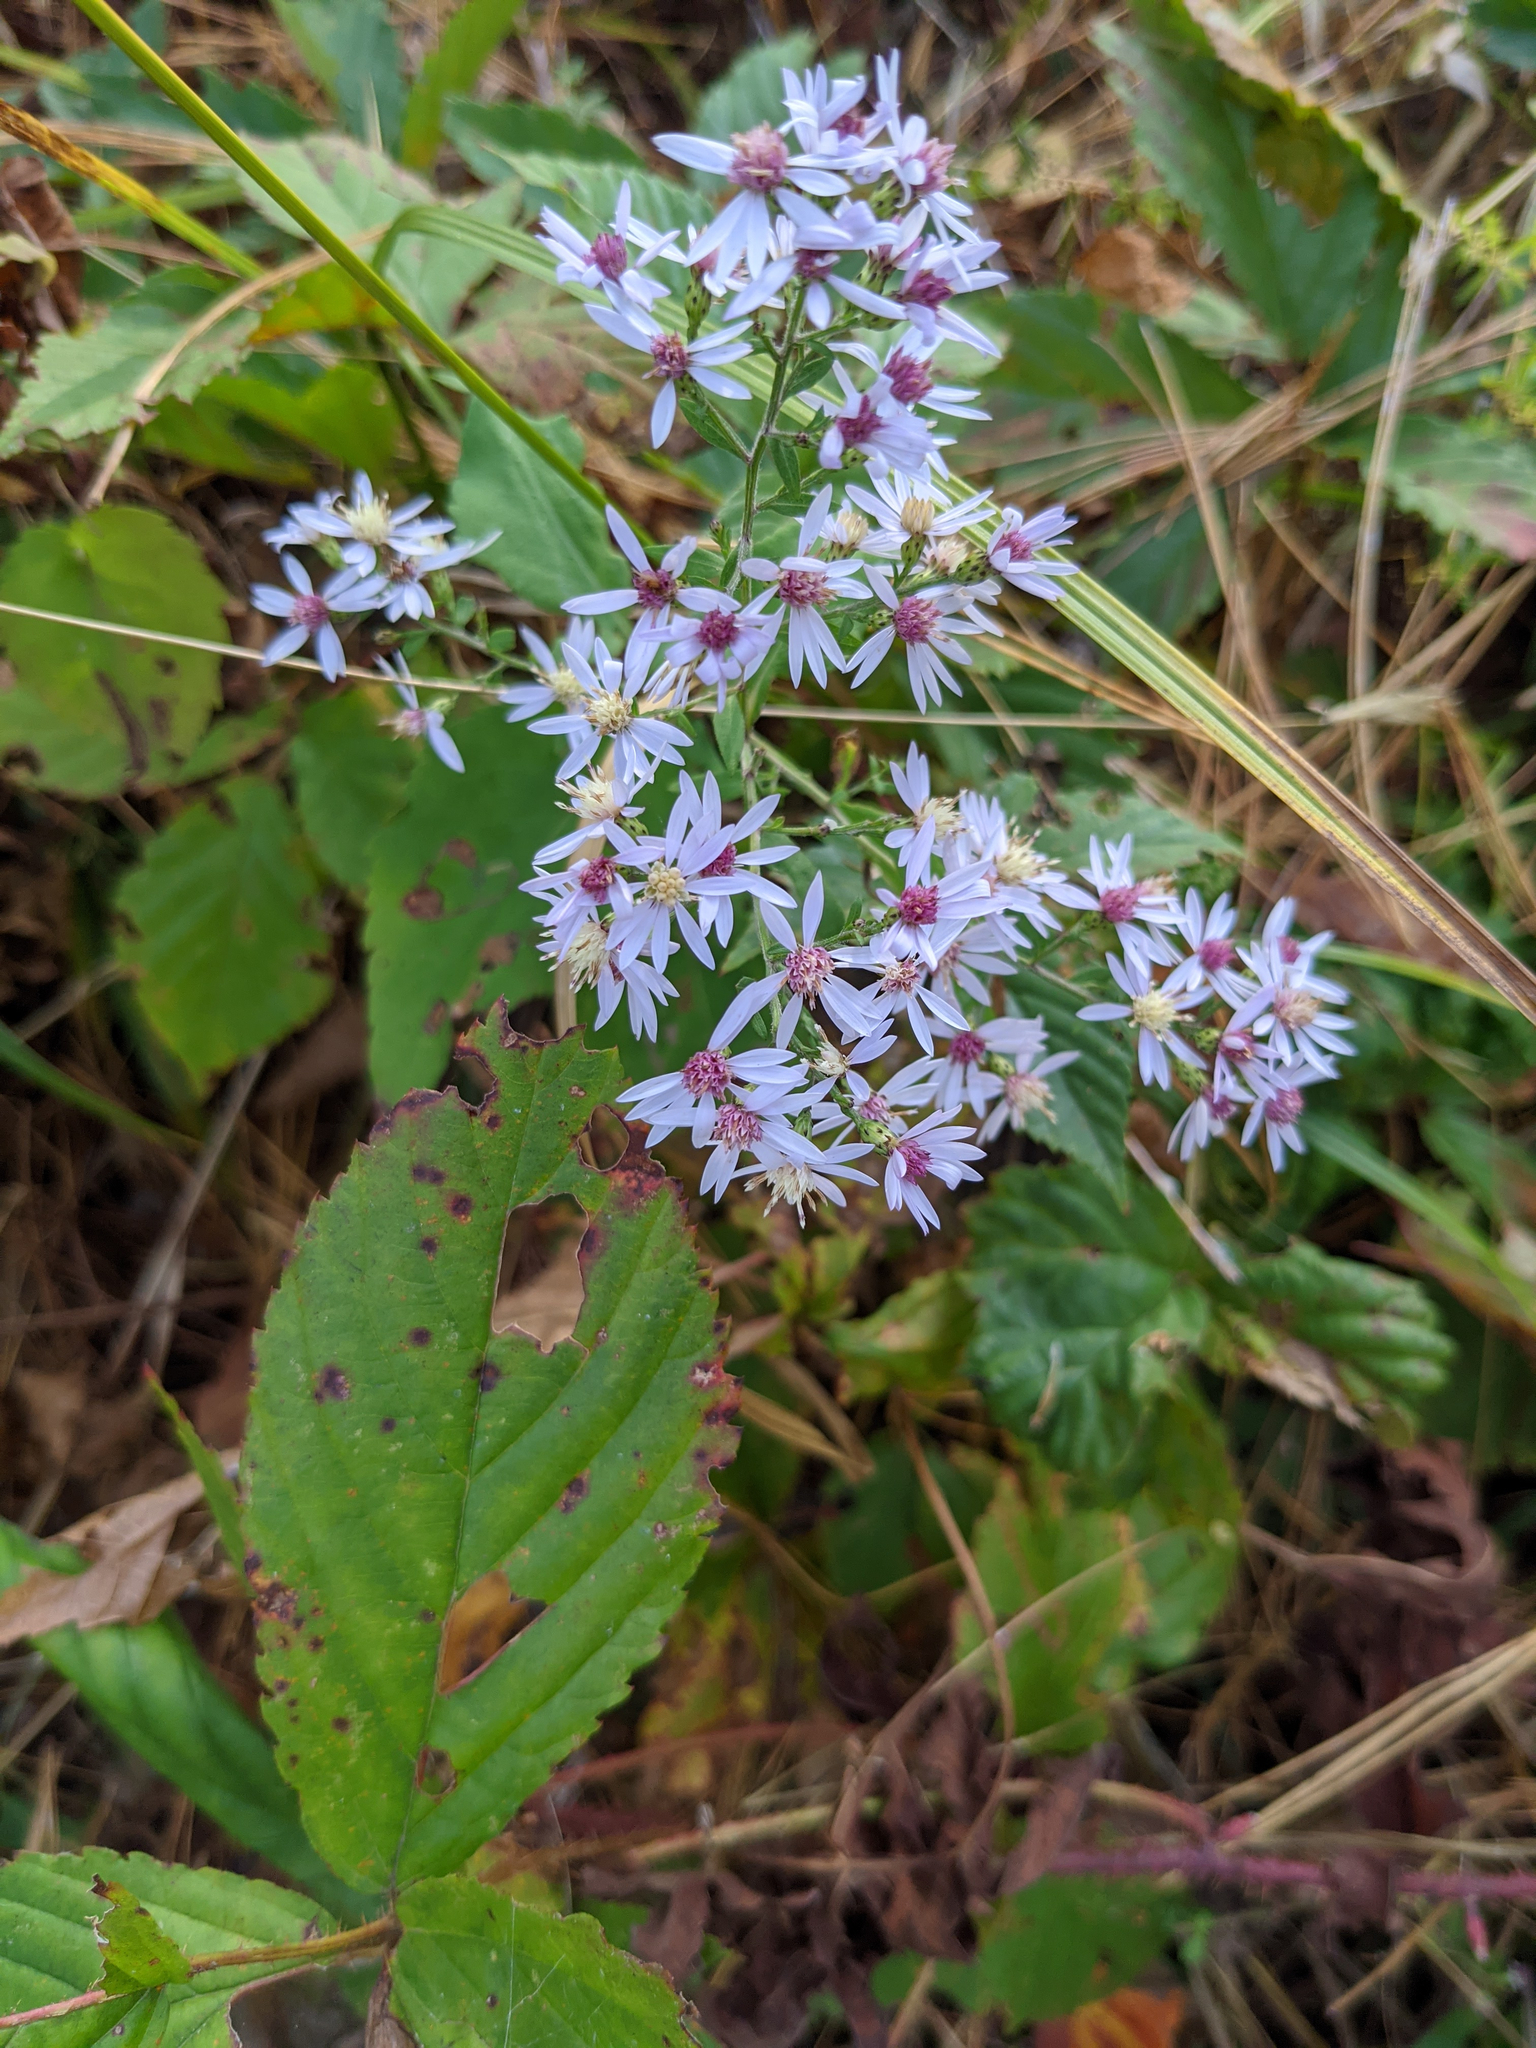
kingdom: Plantae
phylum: Tracheophyta
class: Magnoliopsida
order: Asterales
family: Asteraceae
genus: Symphyotrichum
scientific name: Symphyotrichum cordifolium
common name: Beeweed
